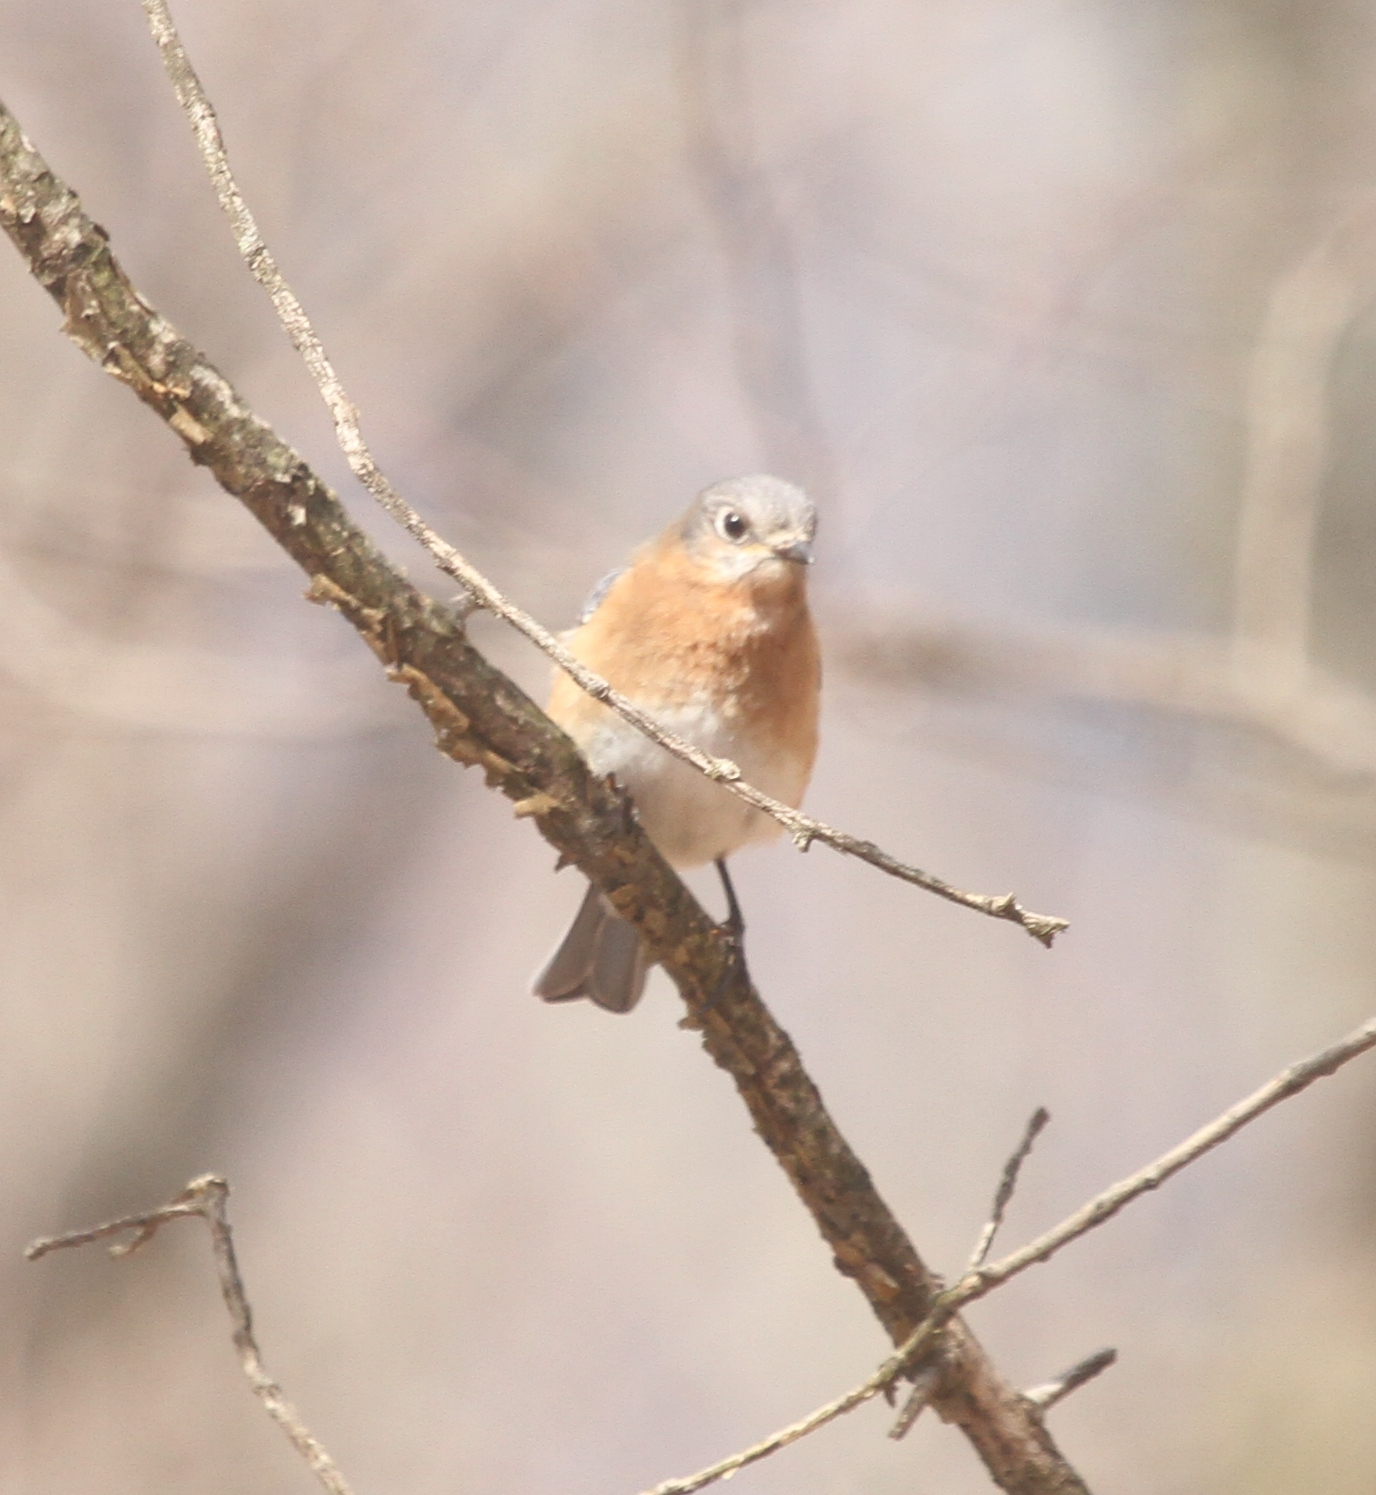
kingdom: Animalia
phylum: Chordata
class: Aves
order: Passeriformes
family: Turdidae
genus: Sialia
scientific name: Sialia sialis
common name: Eastern bluebird
